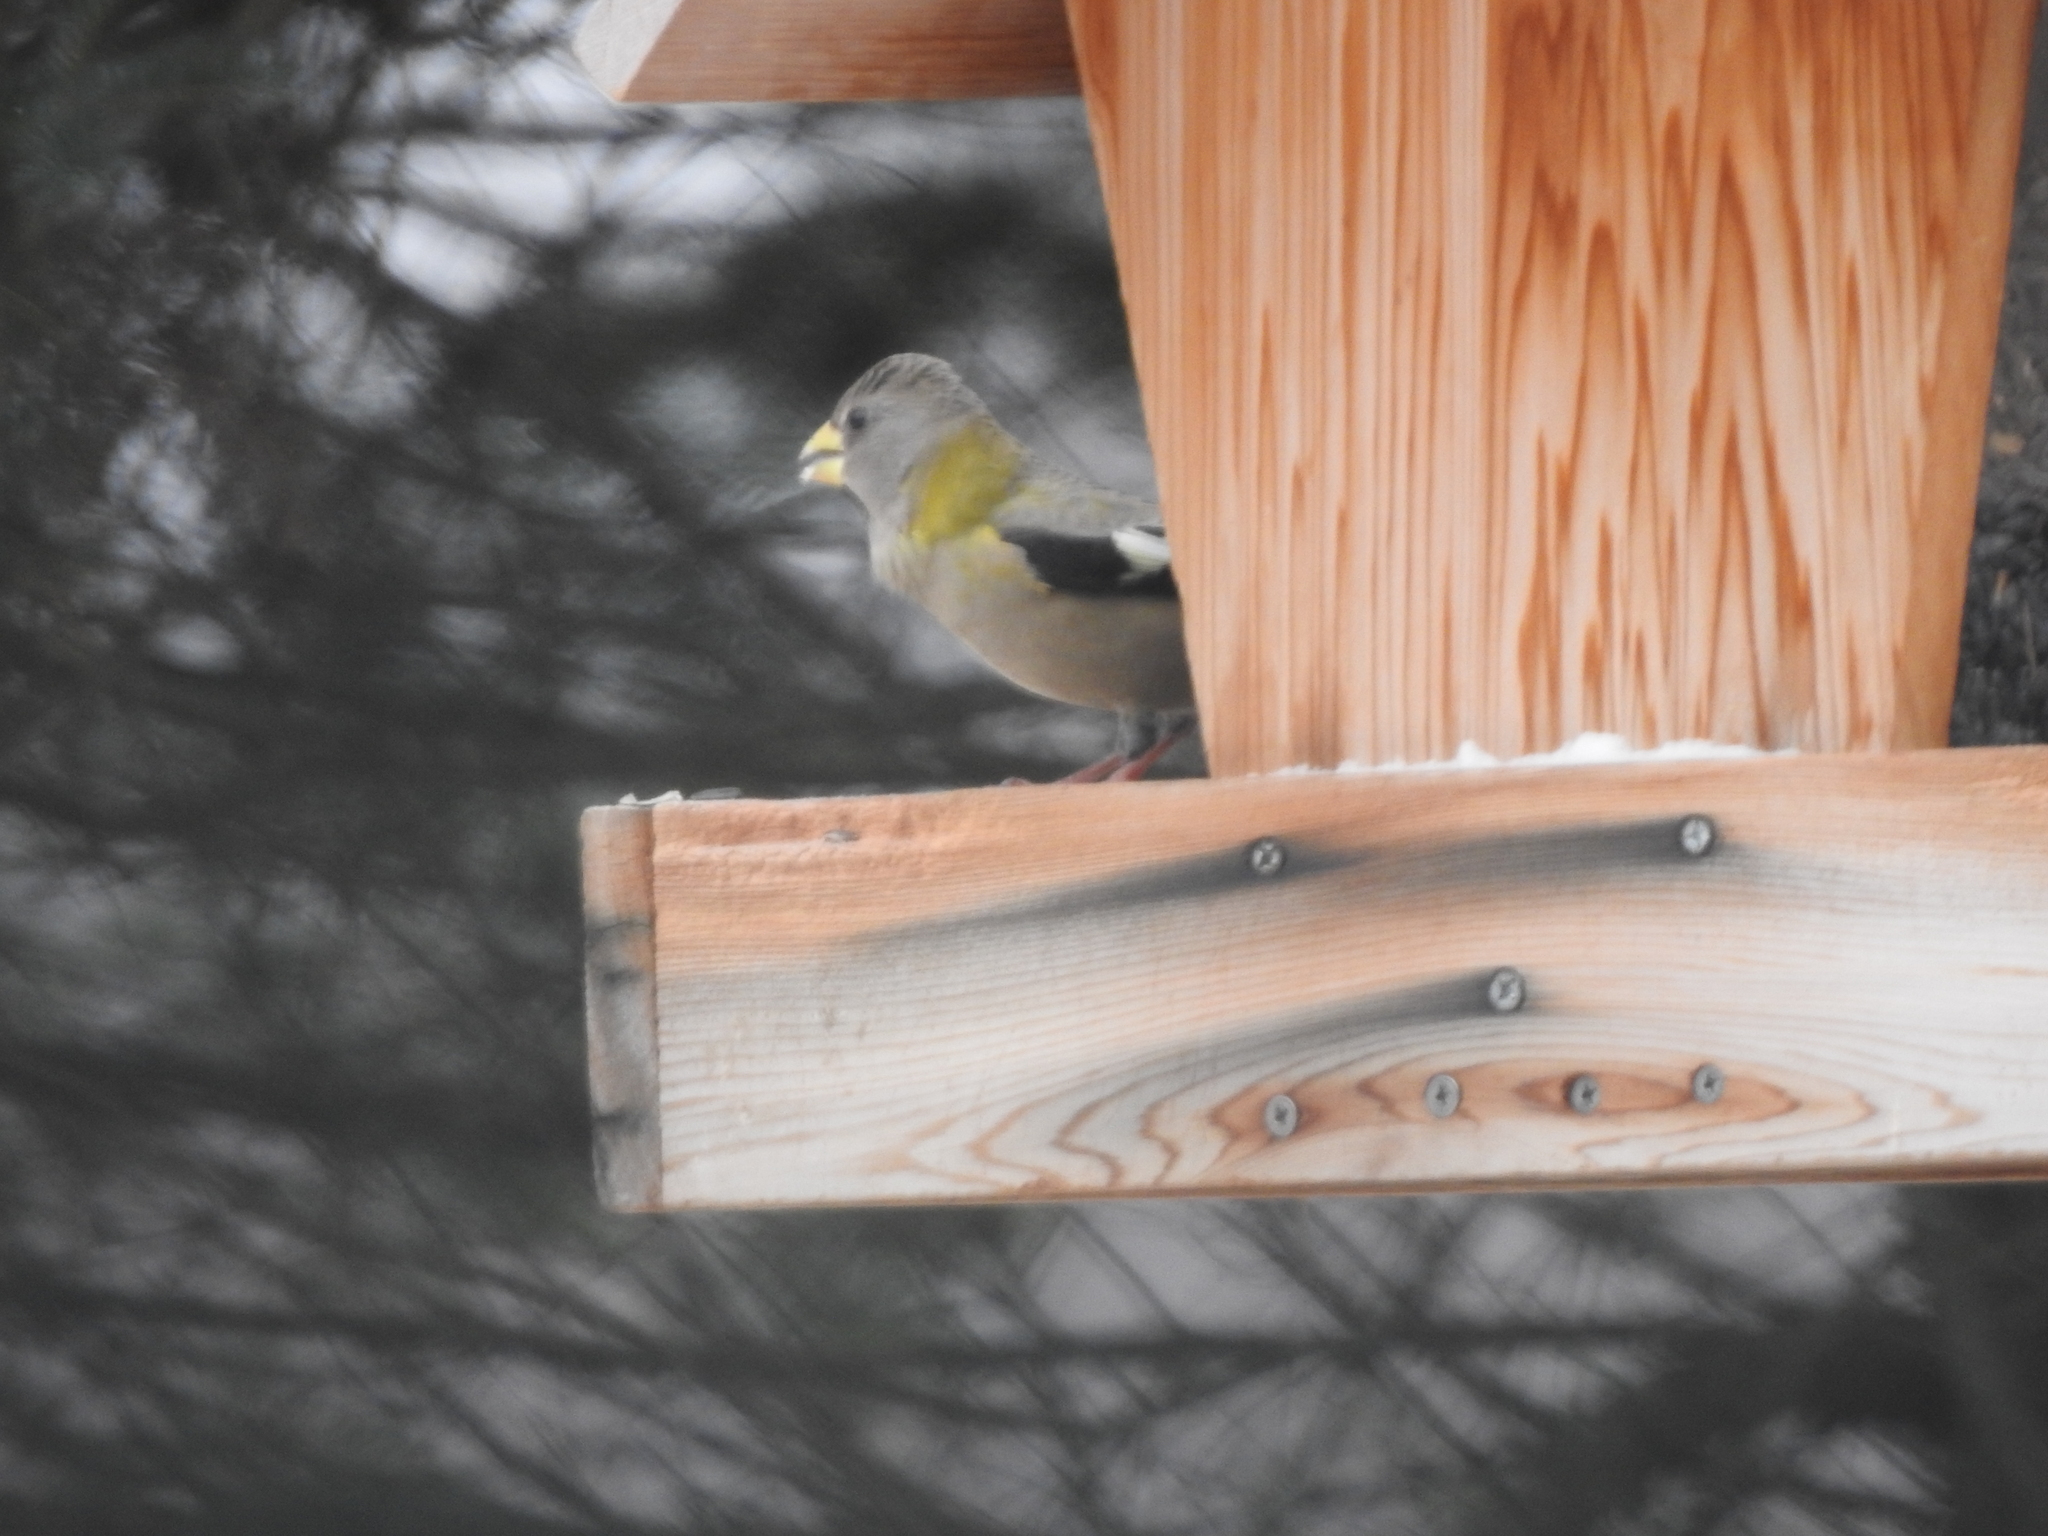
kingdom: Animalia
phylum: Chordata
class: Aves
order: Passeriformes
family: Fringillidae
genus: Hesperiphona
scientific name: Hesperiphona vespertina
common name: Evening grosbeak
